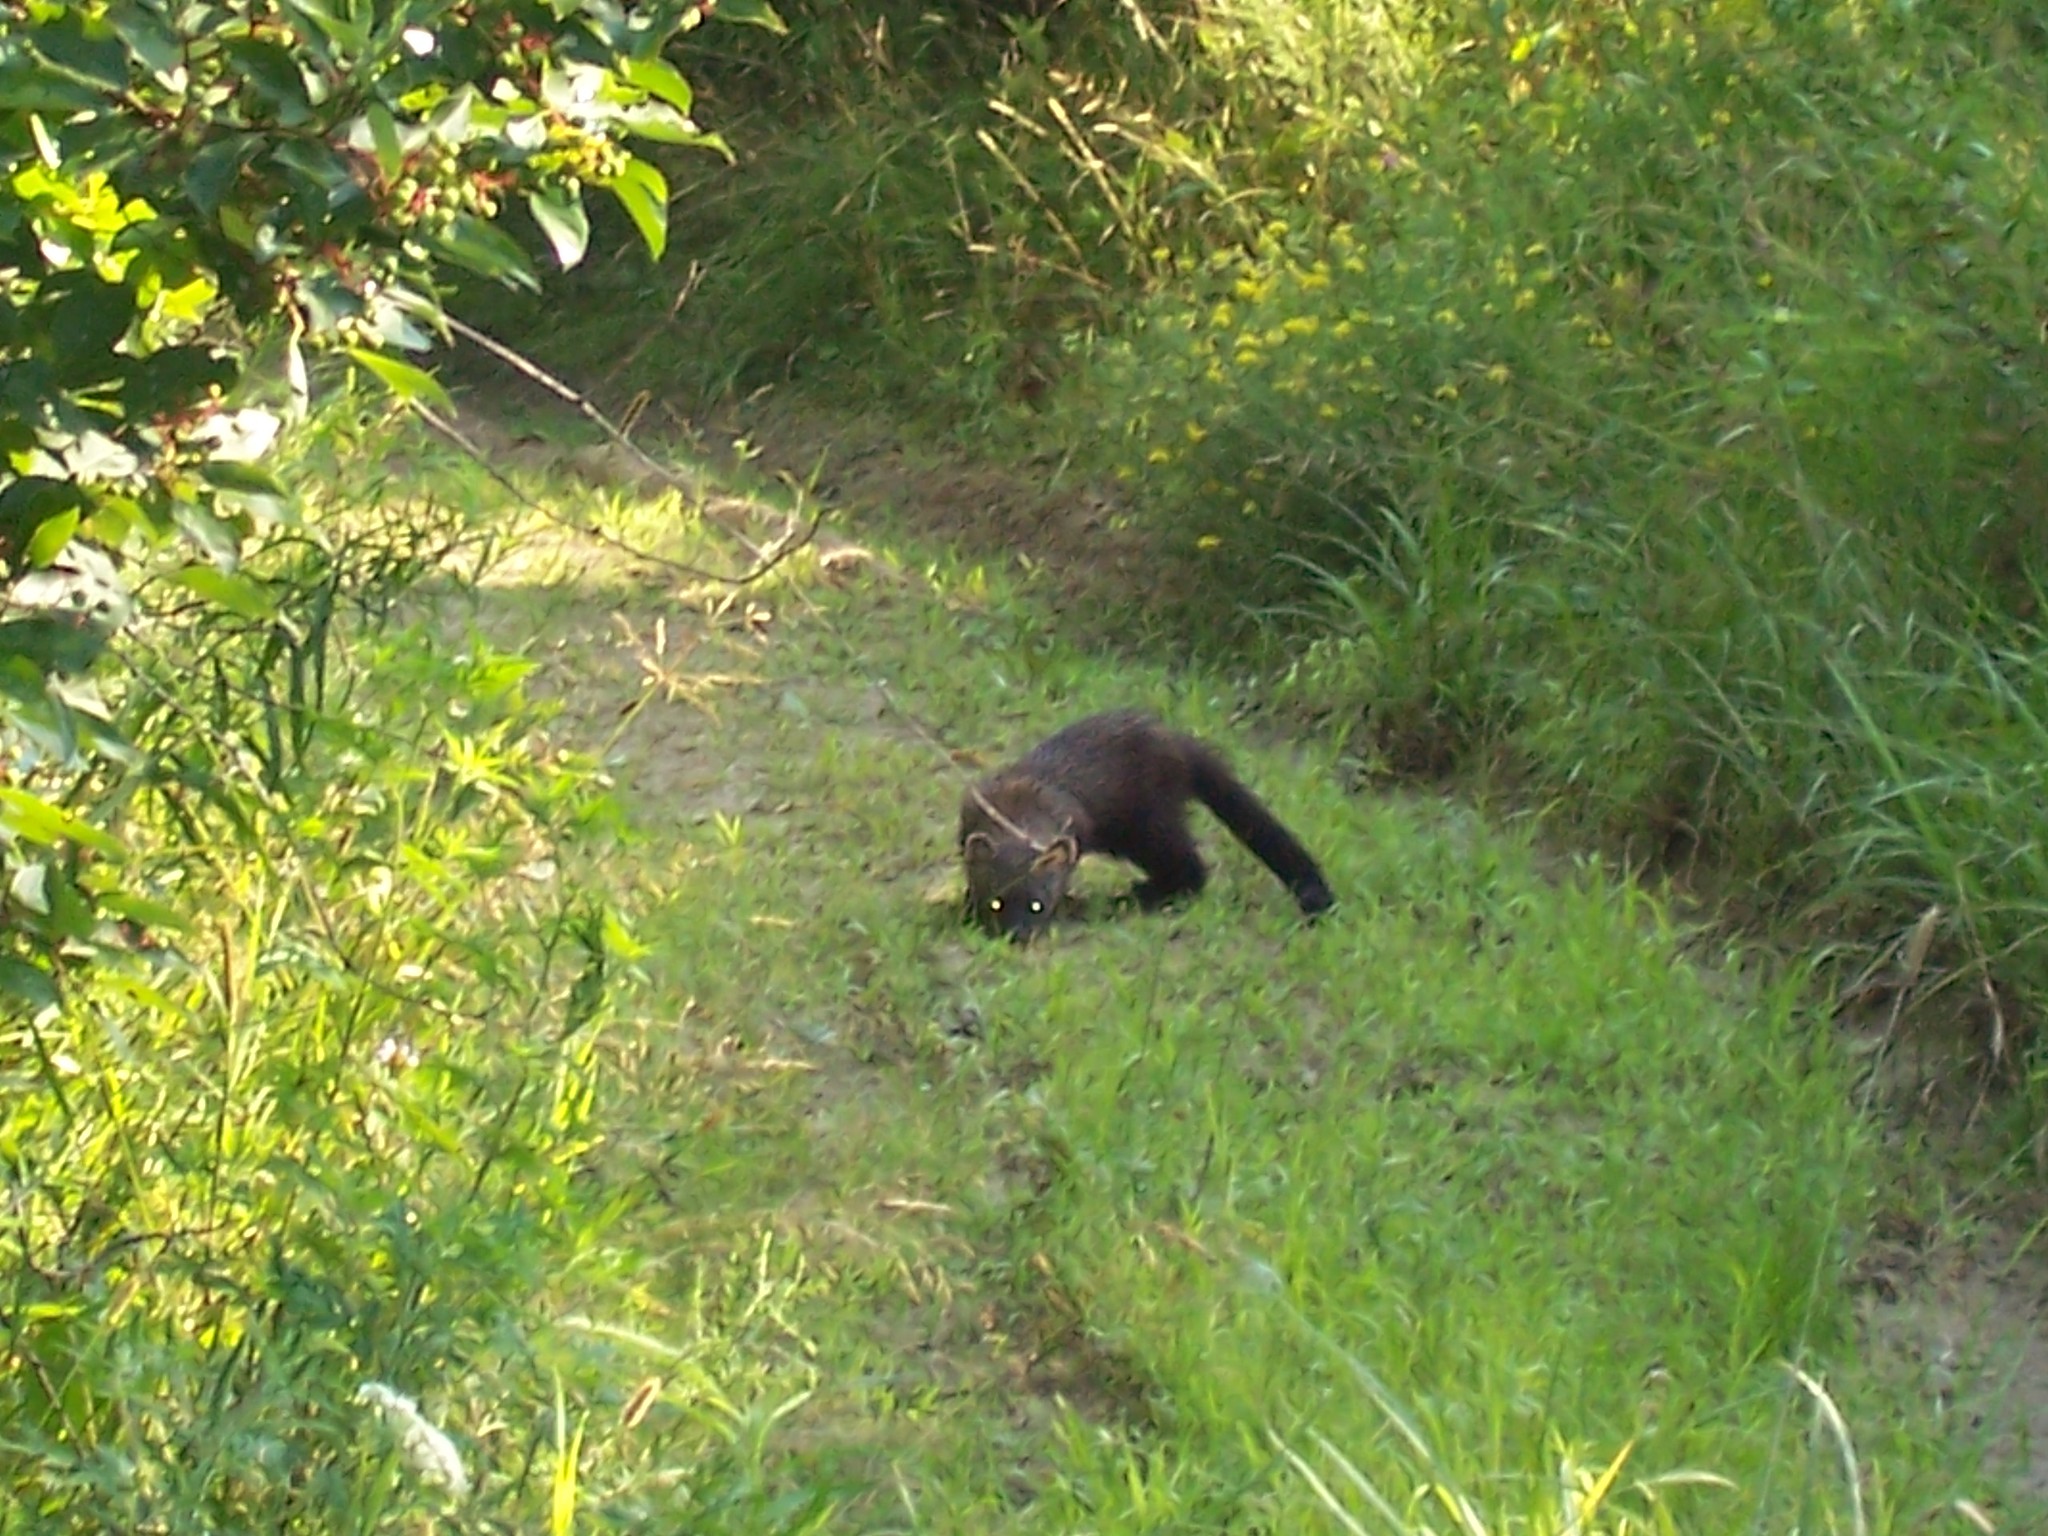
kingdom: Animalia
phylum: Chordata
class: Mammalia
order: Carnivora
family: Mustelidae
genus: Pekania
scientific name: Pekania pennanti
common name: Fisher
